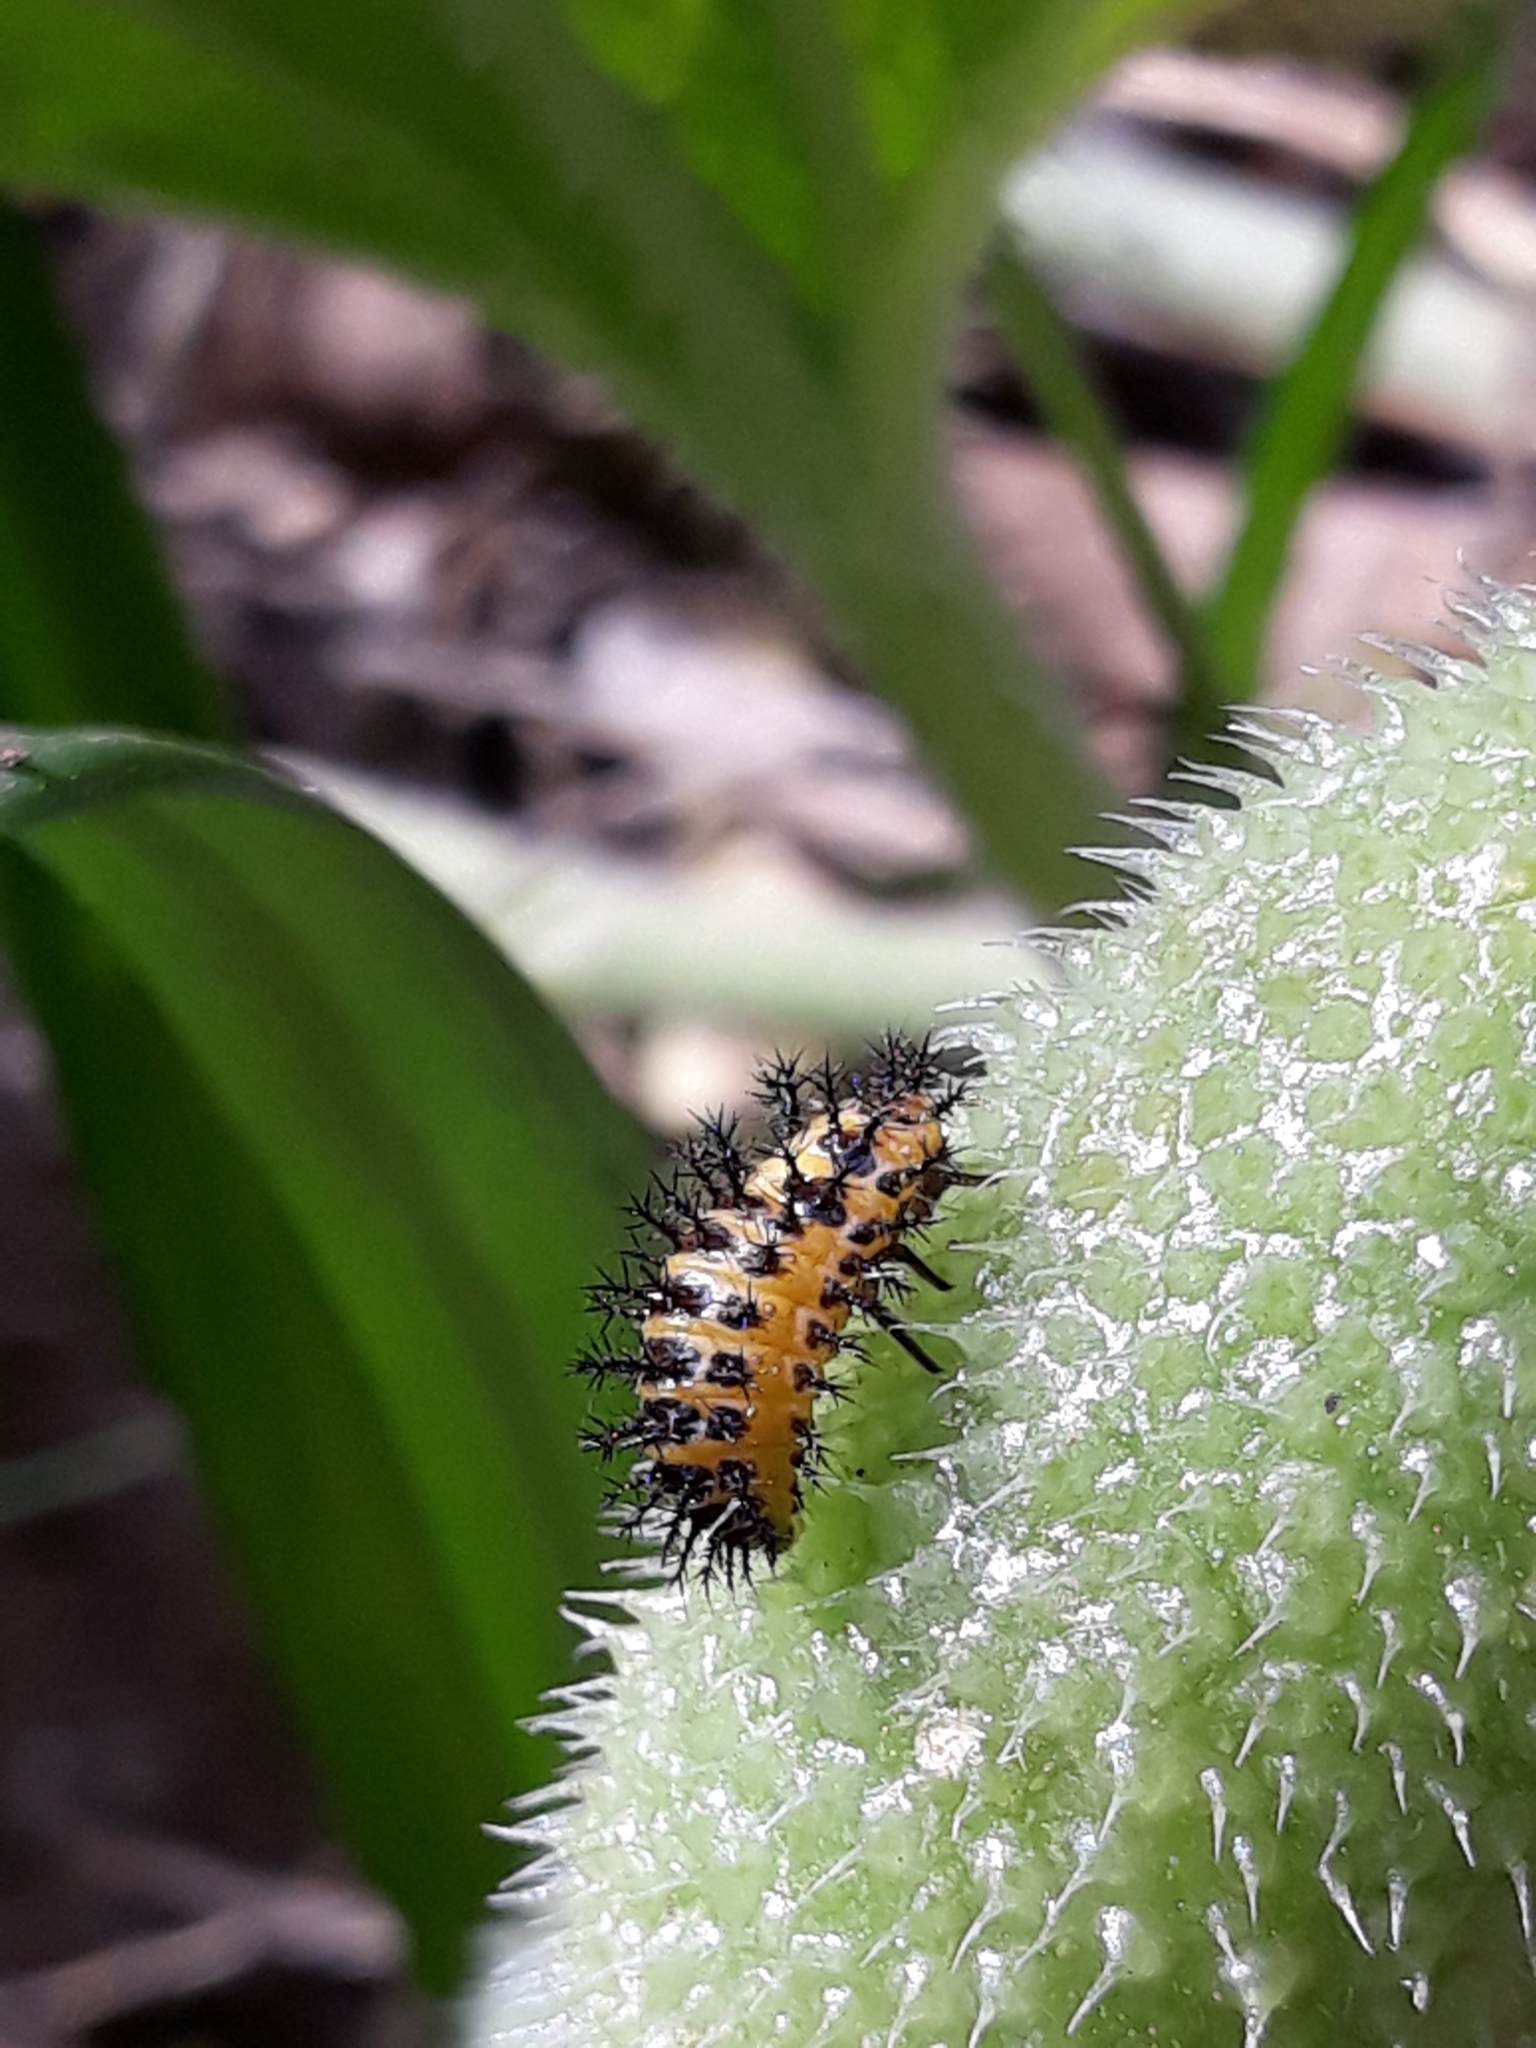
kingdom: Animalia
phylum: Arthropoda
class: Insecta
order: Coleoptera
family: Coccinellidae
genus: Chnootriba
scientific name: Chnootriba elaterii
